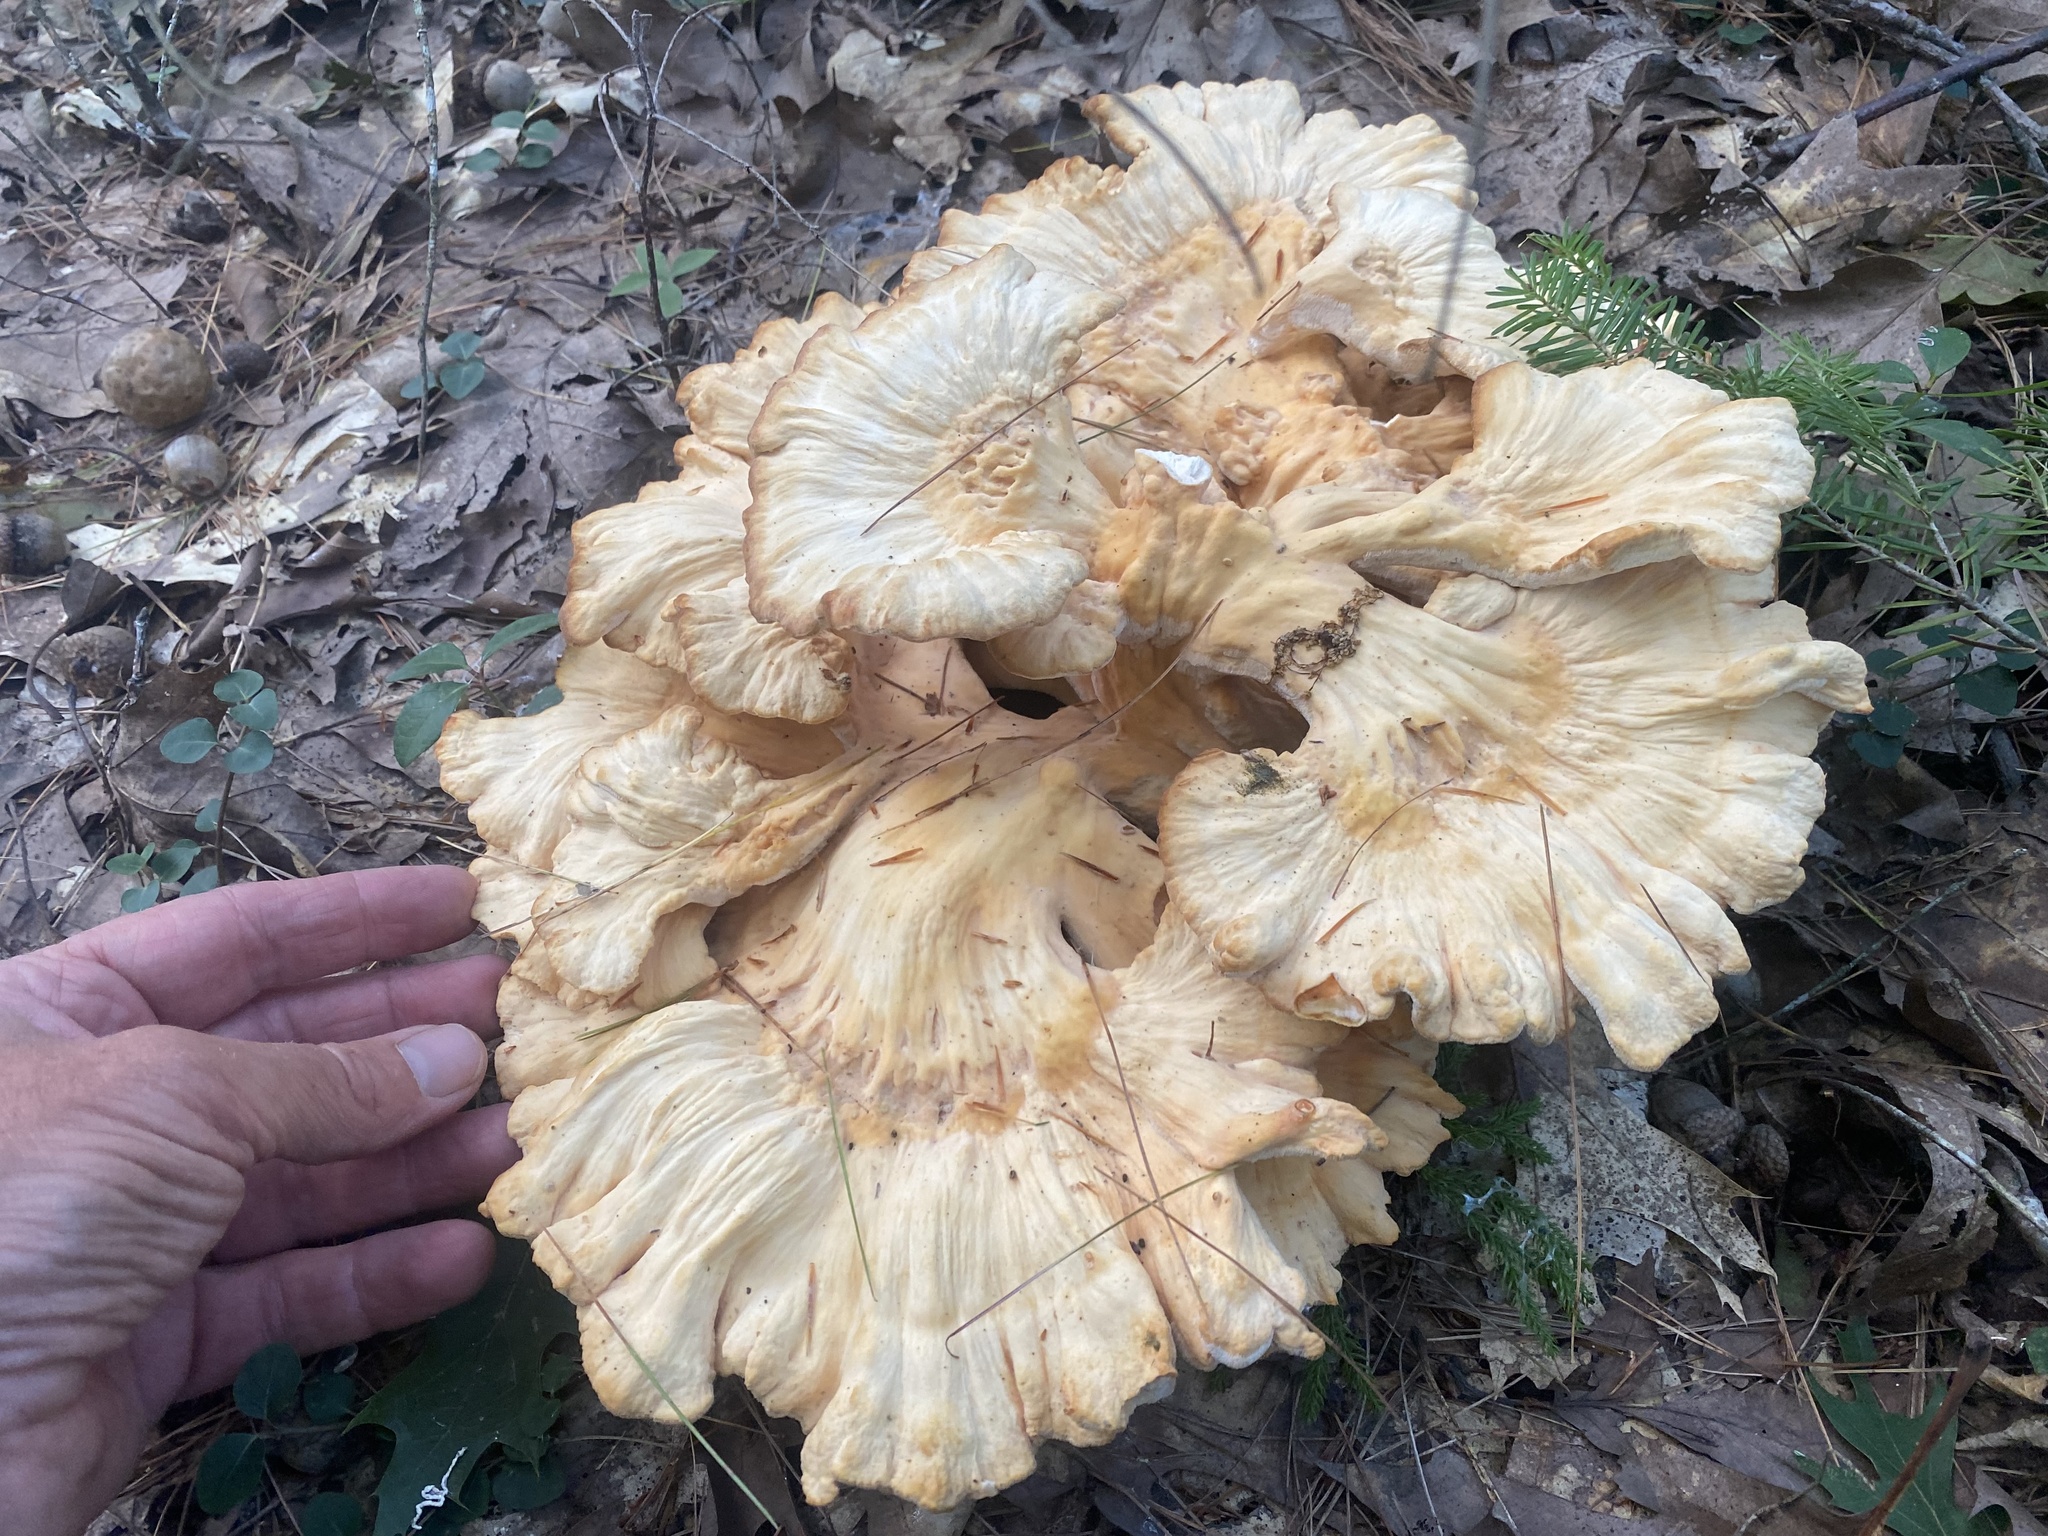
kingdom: Fungi
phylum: Basidiomycota
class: Agaricomycetes
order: Polyporales
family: Laetiporaceae
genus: Laetiporus
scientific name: Laetiporus sulphureus
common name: Chicken of the woods
